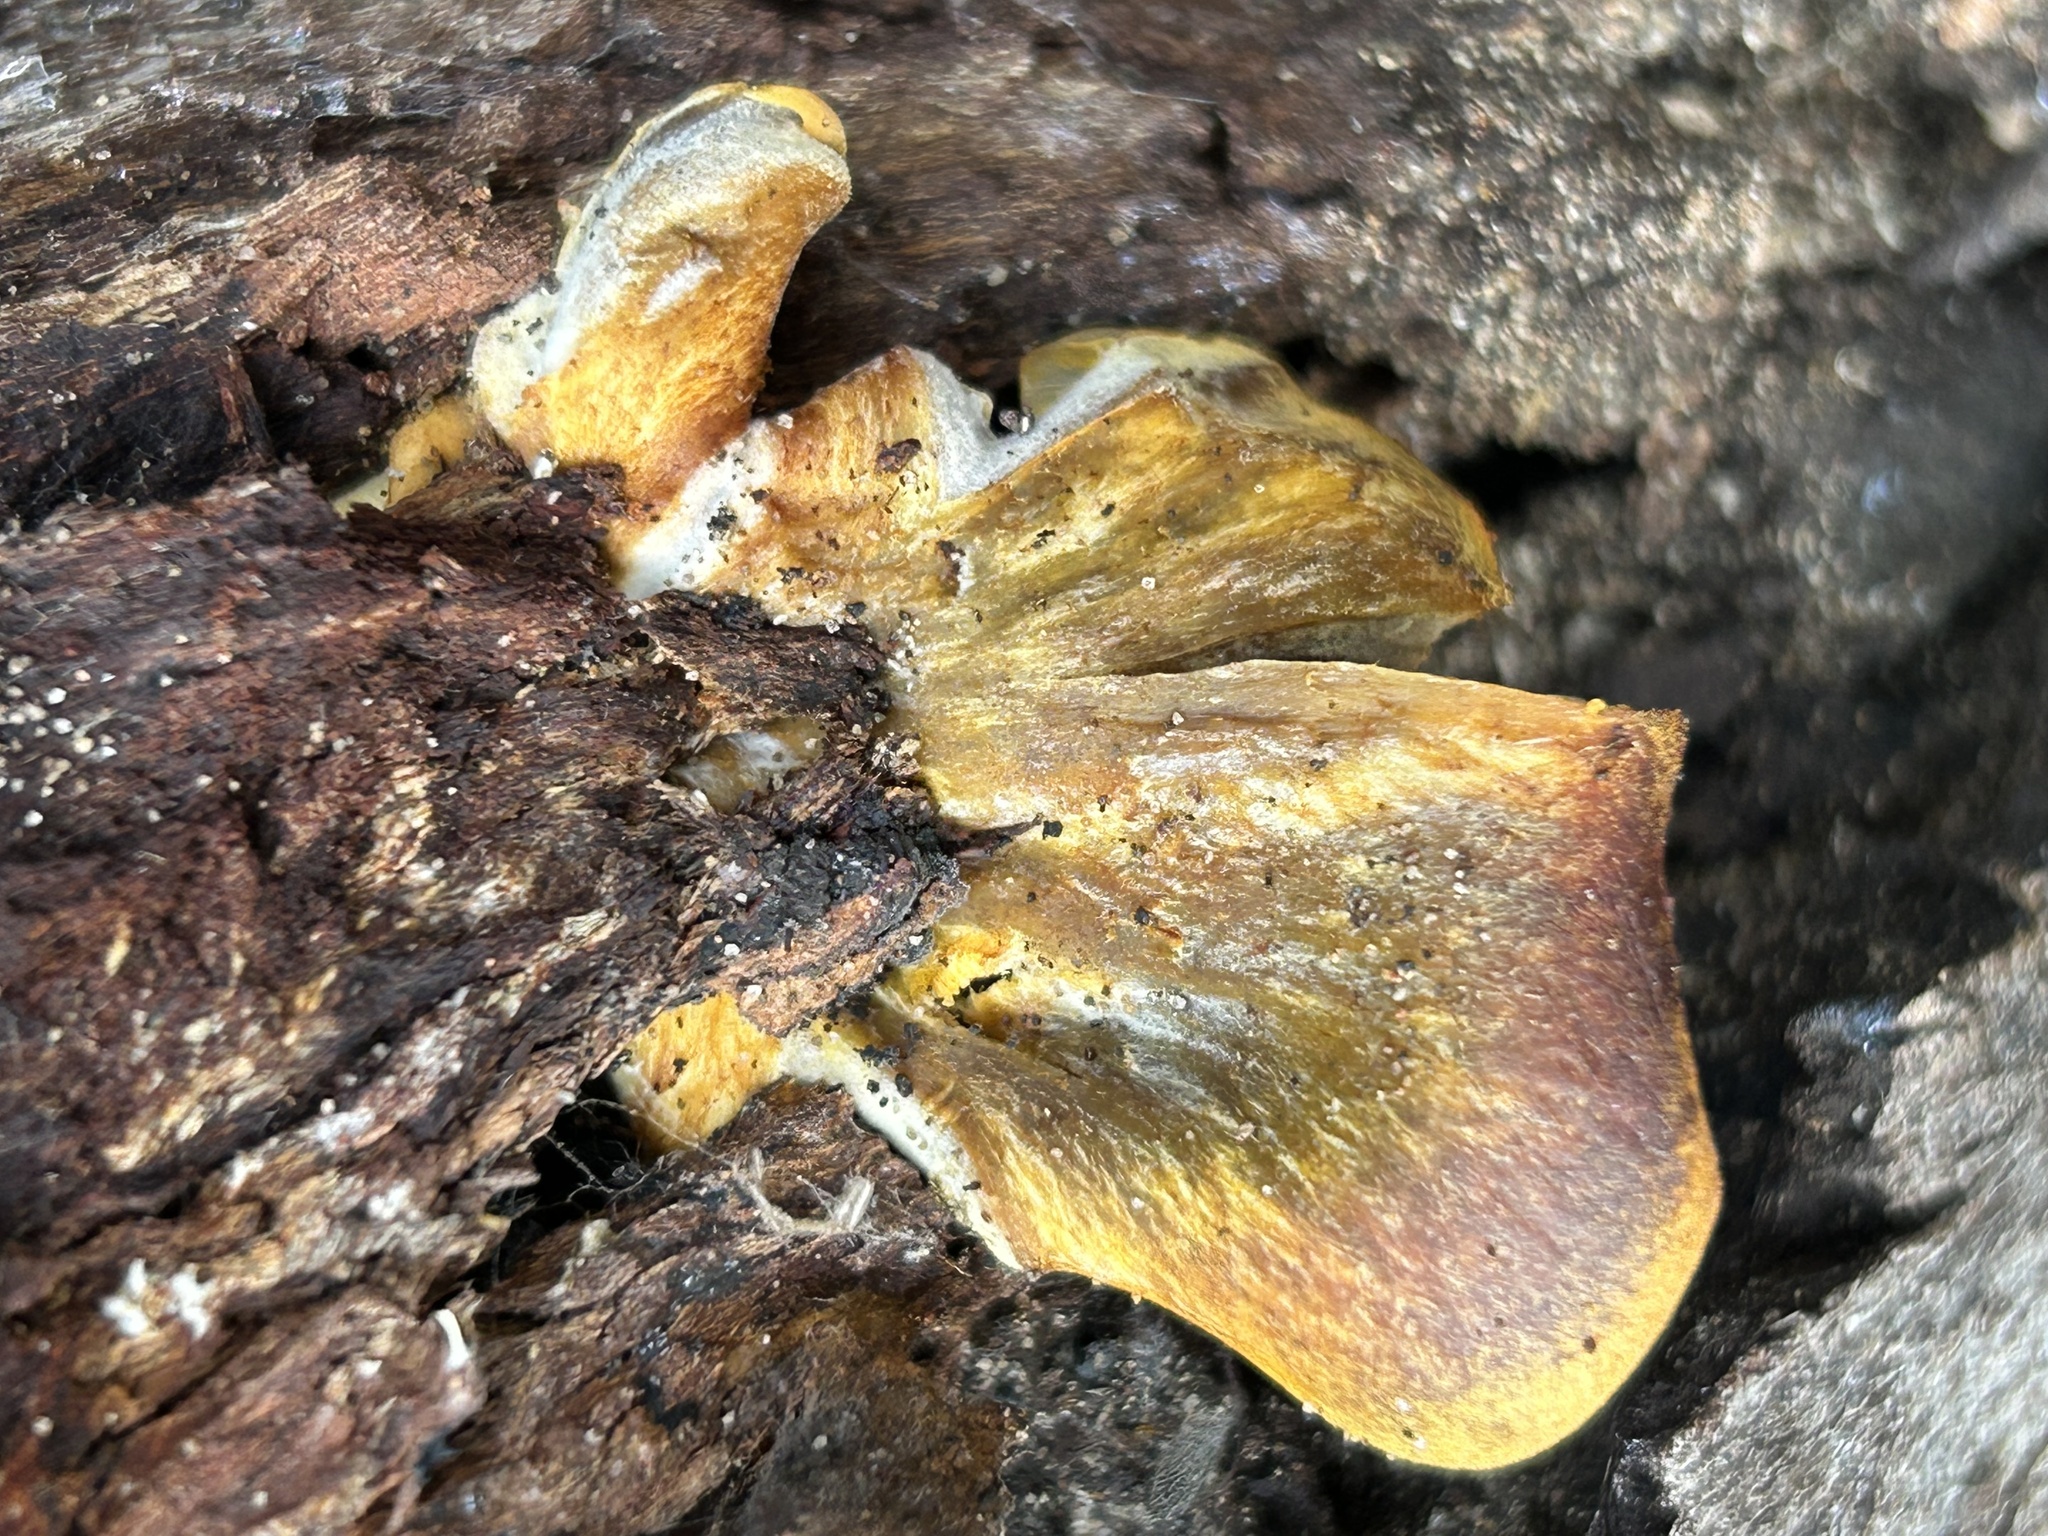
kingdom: Fungi
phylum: Basidiomycota
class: Agaricomycetes
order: Agaricales
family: Omphalotaceae
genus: Omphalotus
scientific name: Omphalotus olivascens
